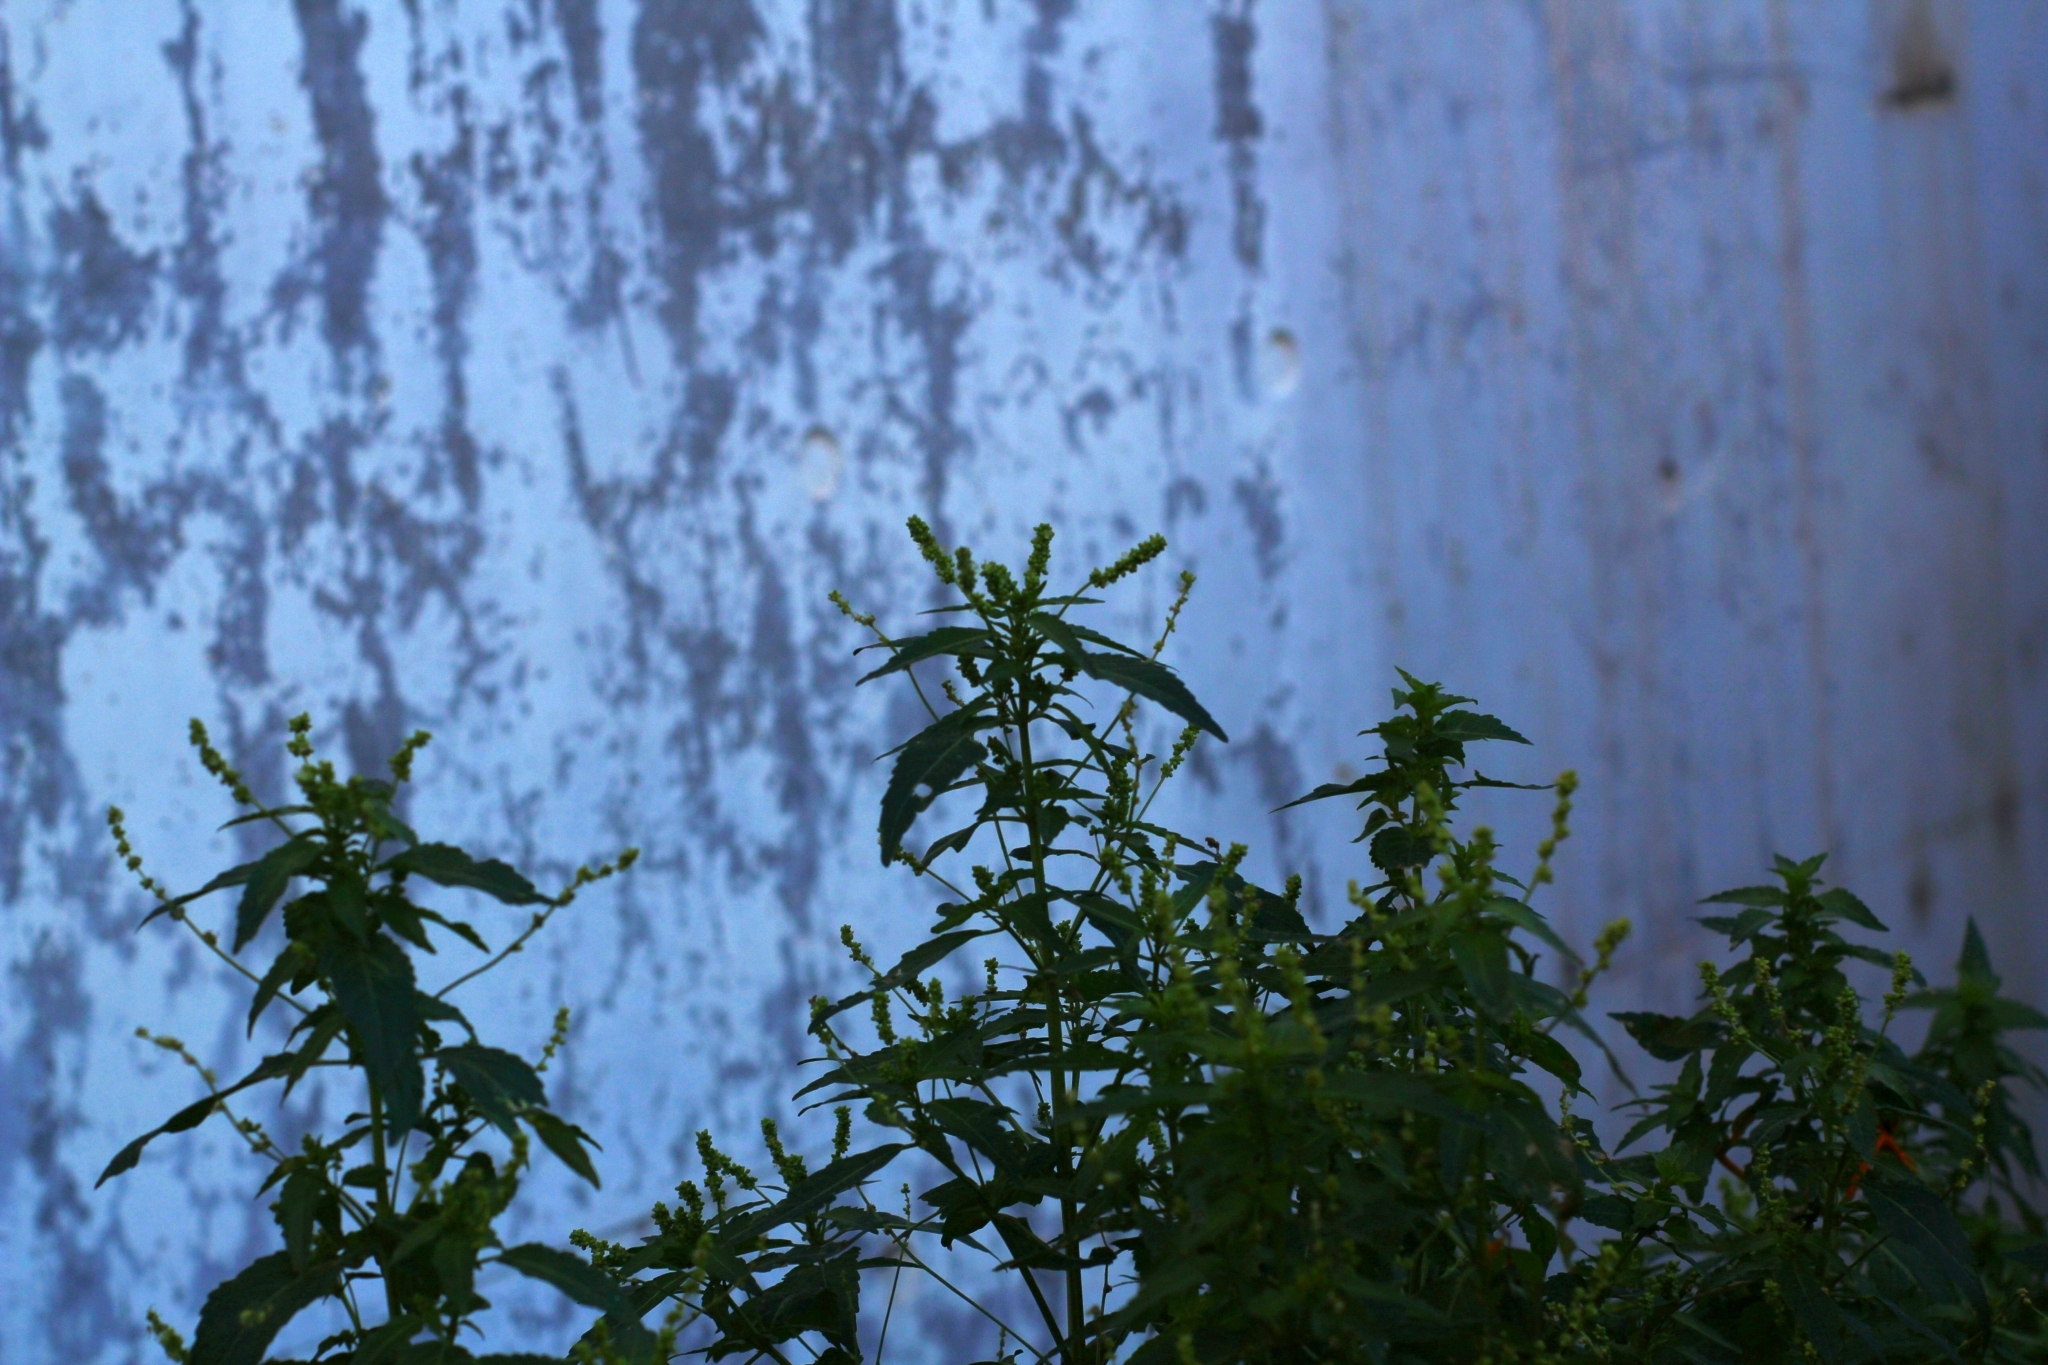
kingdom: Plantae
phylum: Tracheophyta
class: Magnoliopsida
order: Malpighiales
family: Euphorbiaceae
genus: Mercurialis
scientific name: Mercurialis annua
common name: Annual mercury
